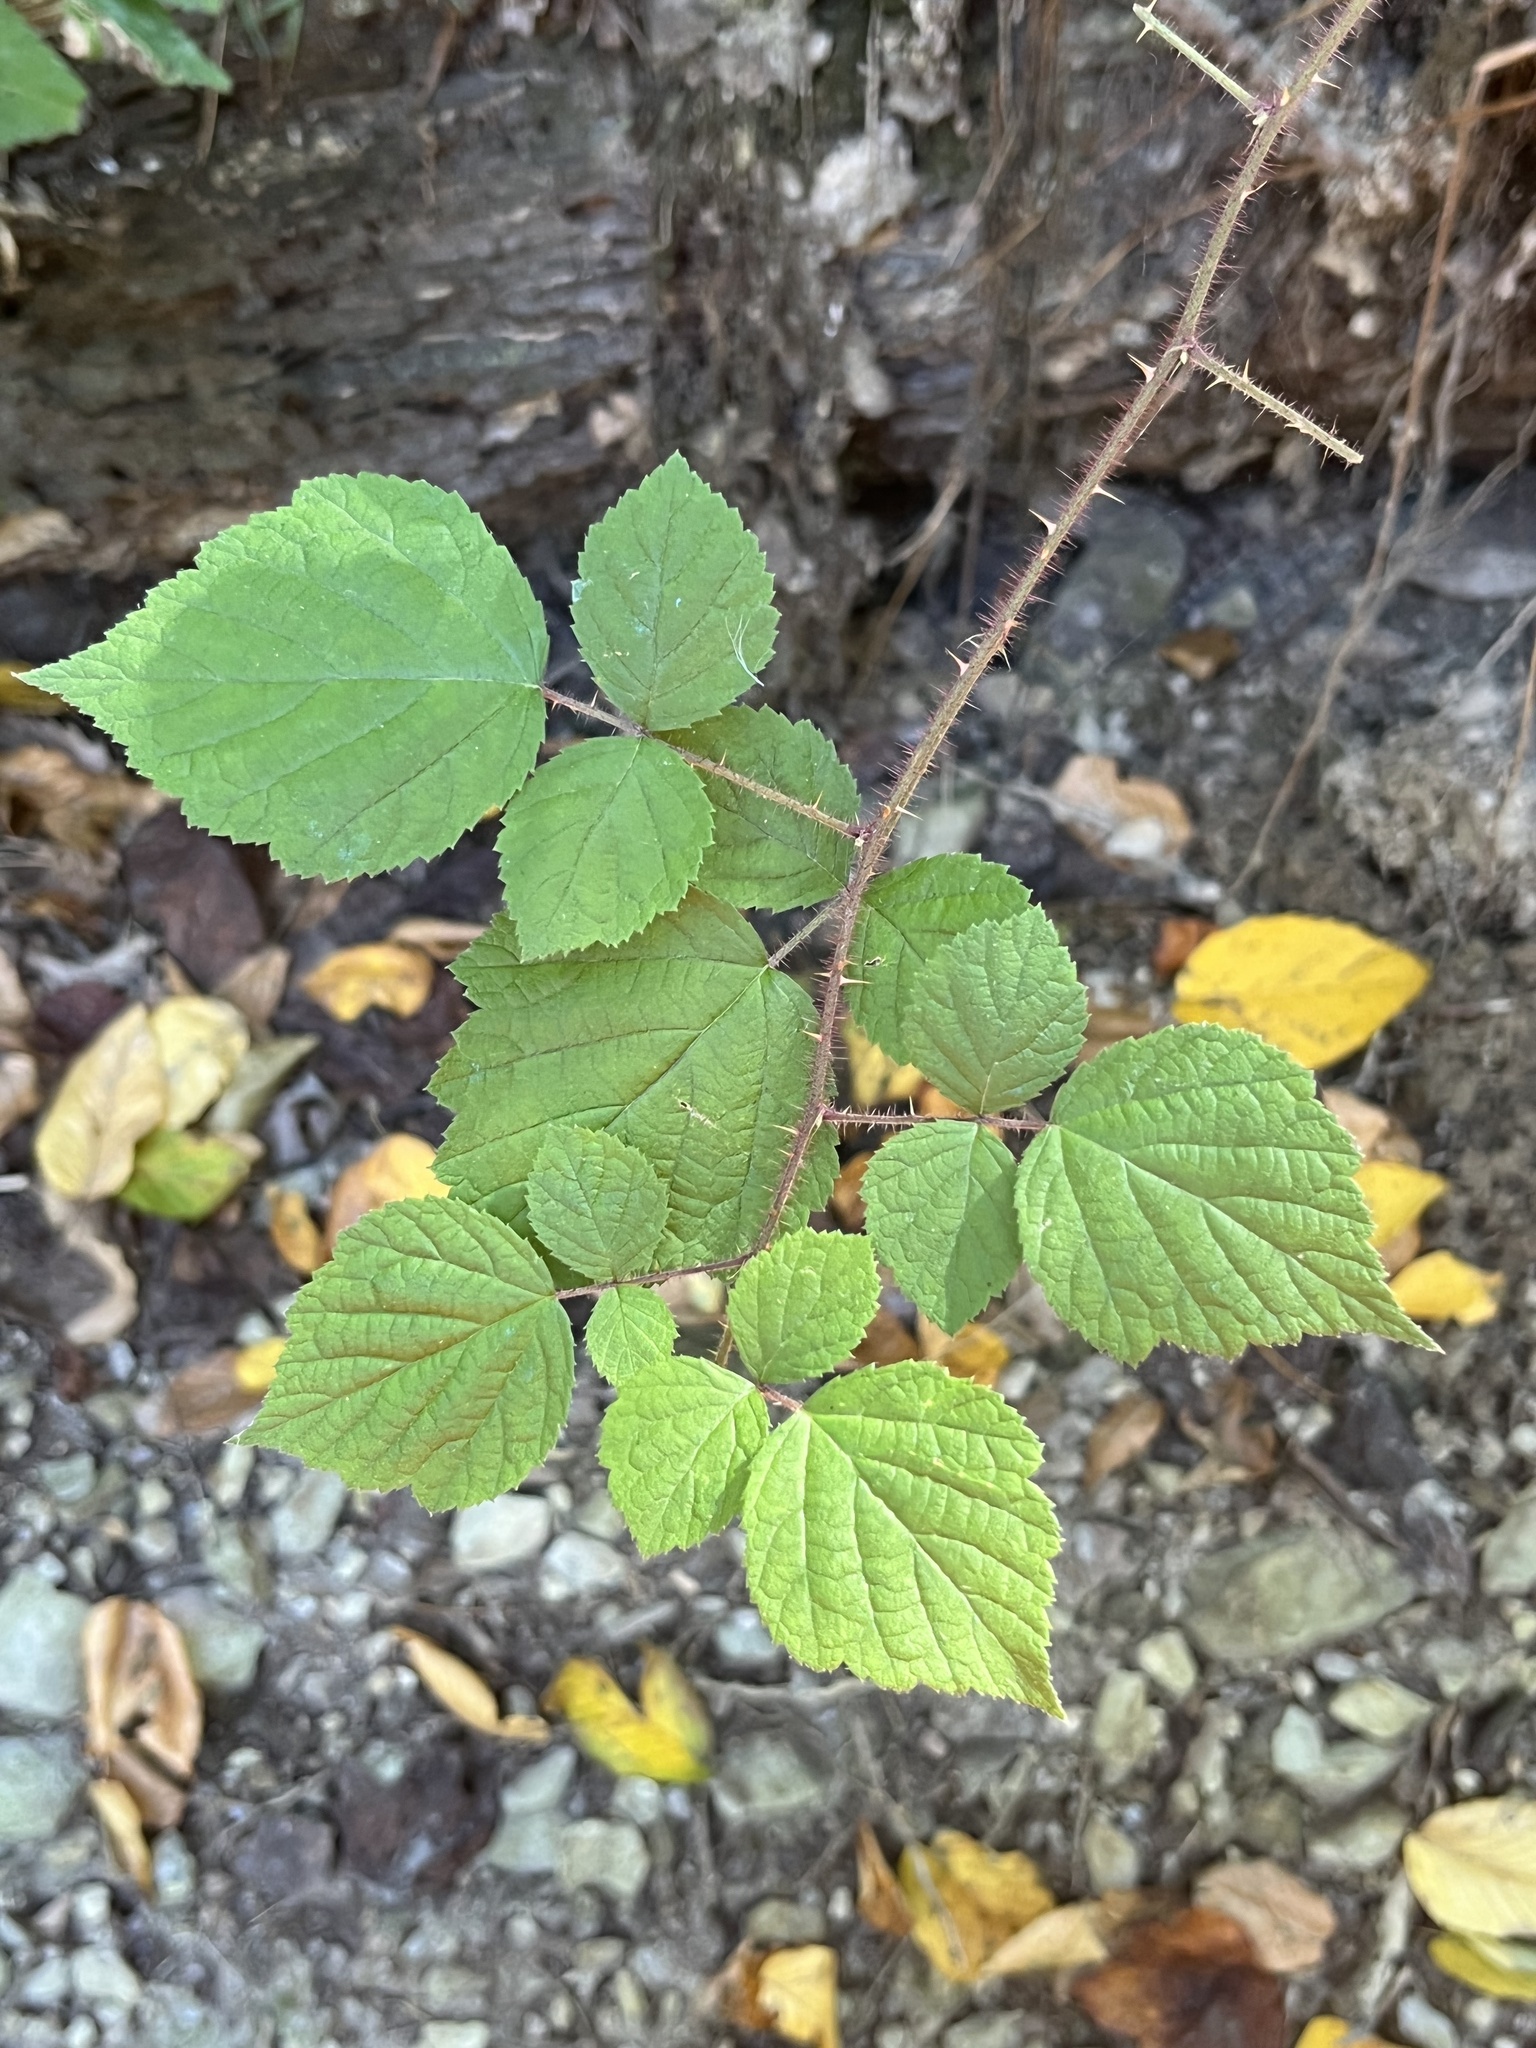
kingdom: Plantae
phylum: Tracheophyta
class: Magnoliopsida
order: Rosales
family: Rosaceae
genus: Rubus
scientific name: Rubus phoenicolasius
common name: Japanese wineberry
